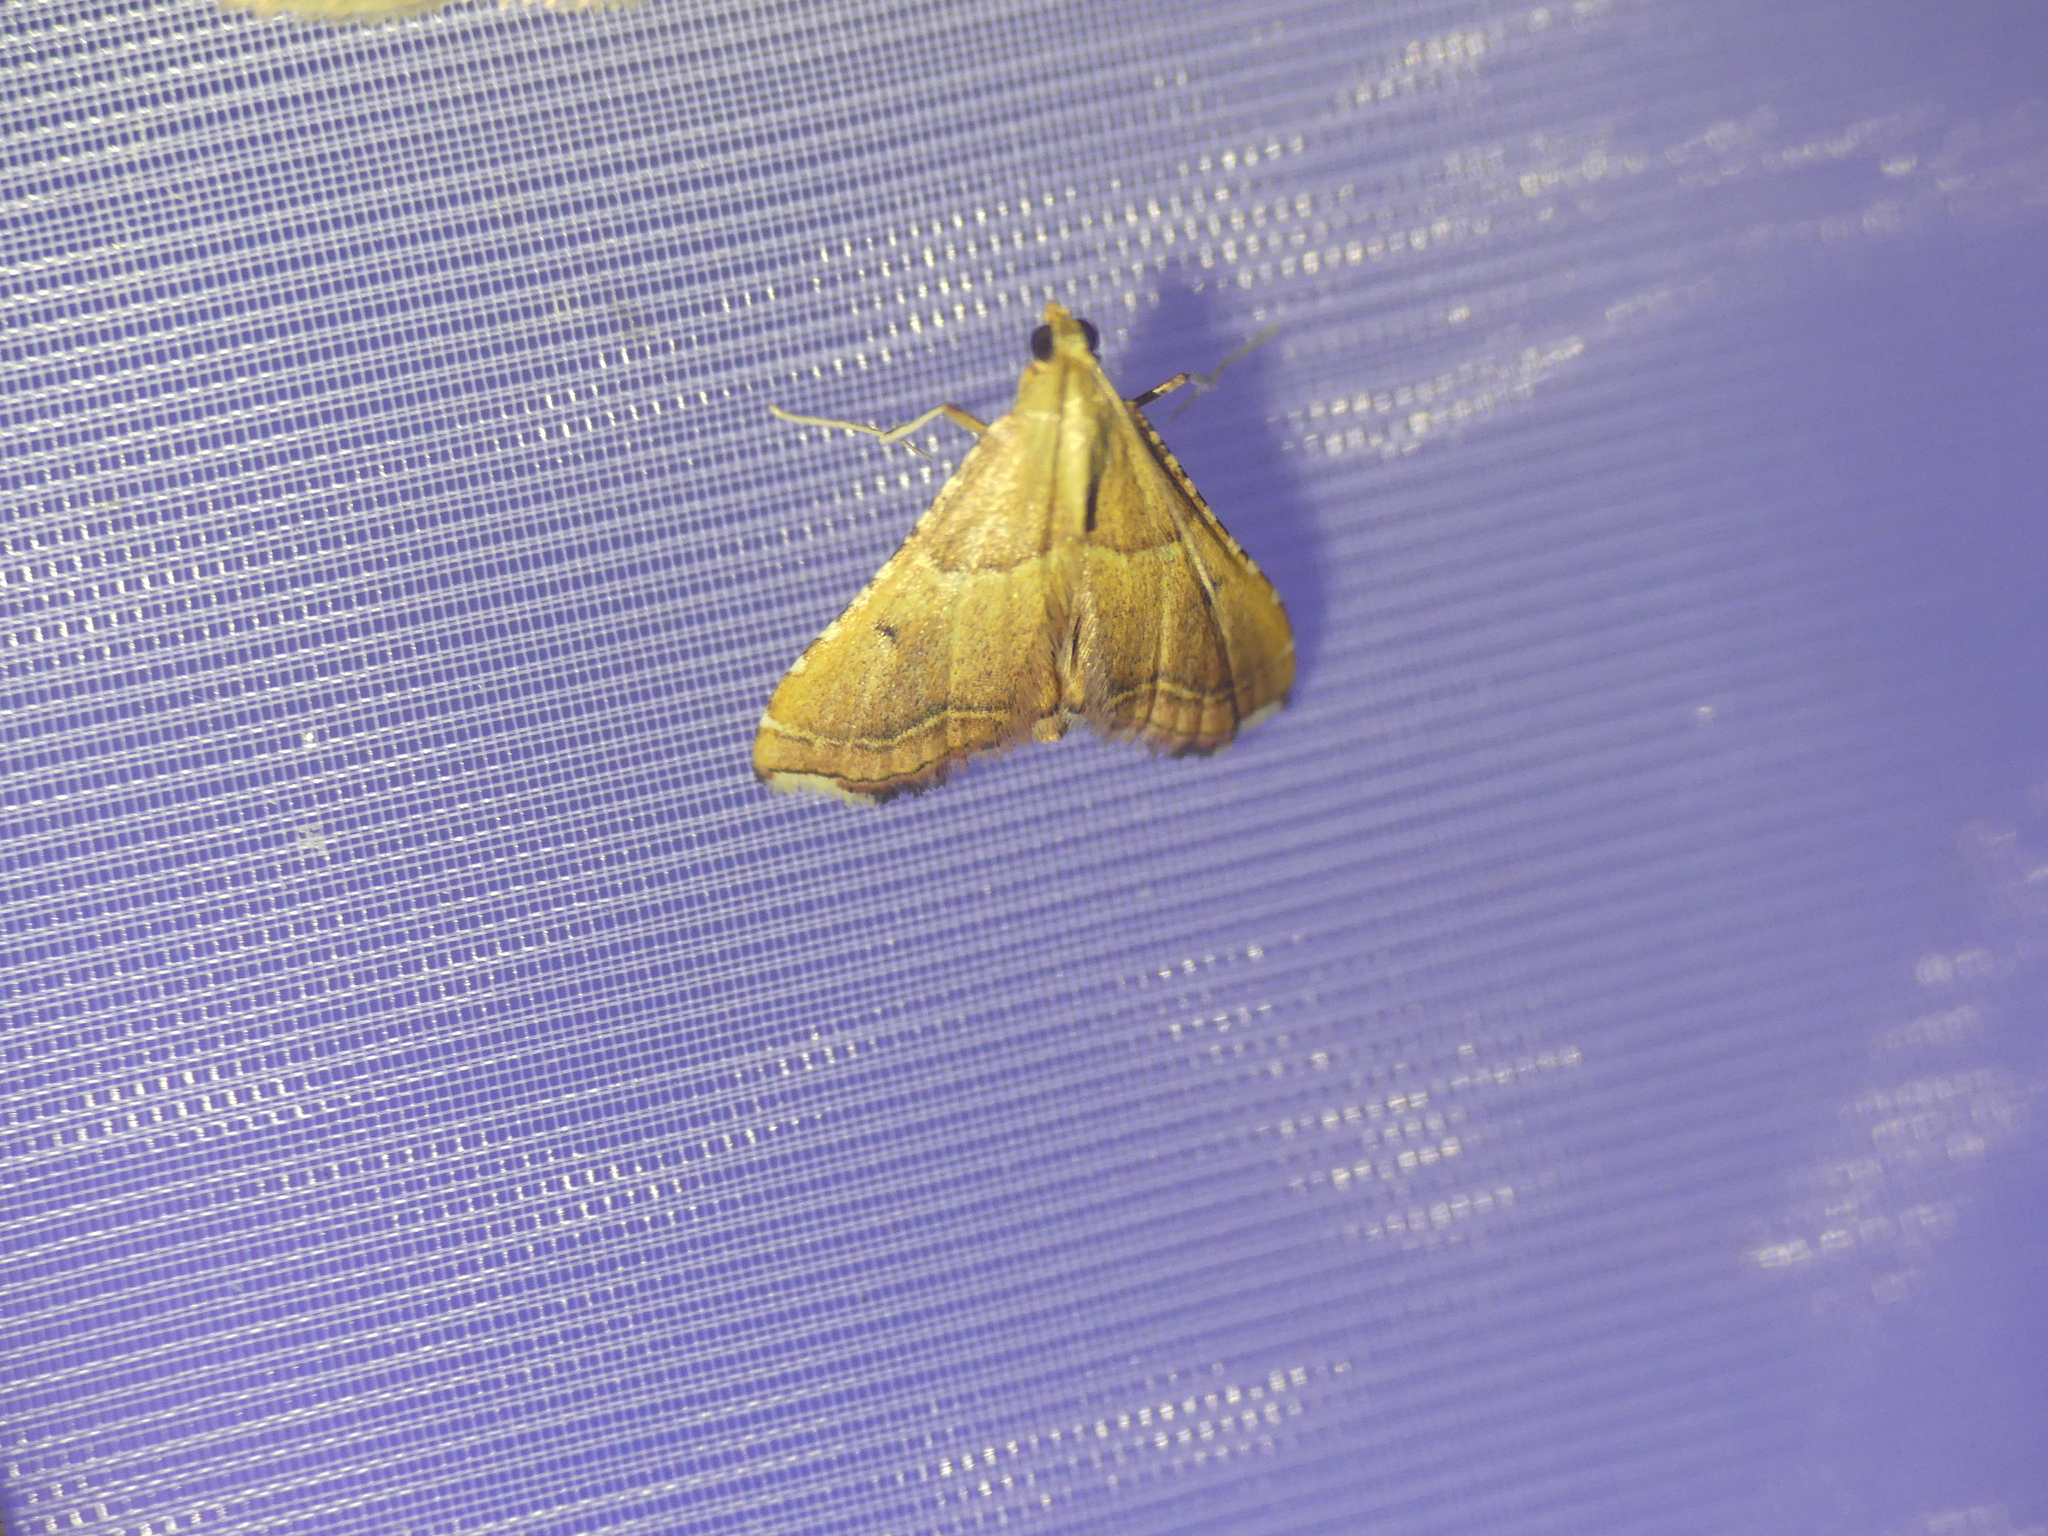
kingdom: Animalia
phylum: Arthropoda
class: Insecta
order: Lepidoptera
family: Pyralidae
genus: Endotricha
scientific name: Endotricha flammealis
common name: Rosy tabby
